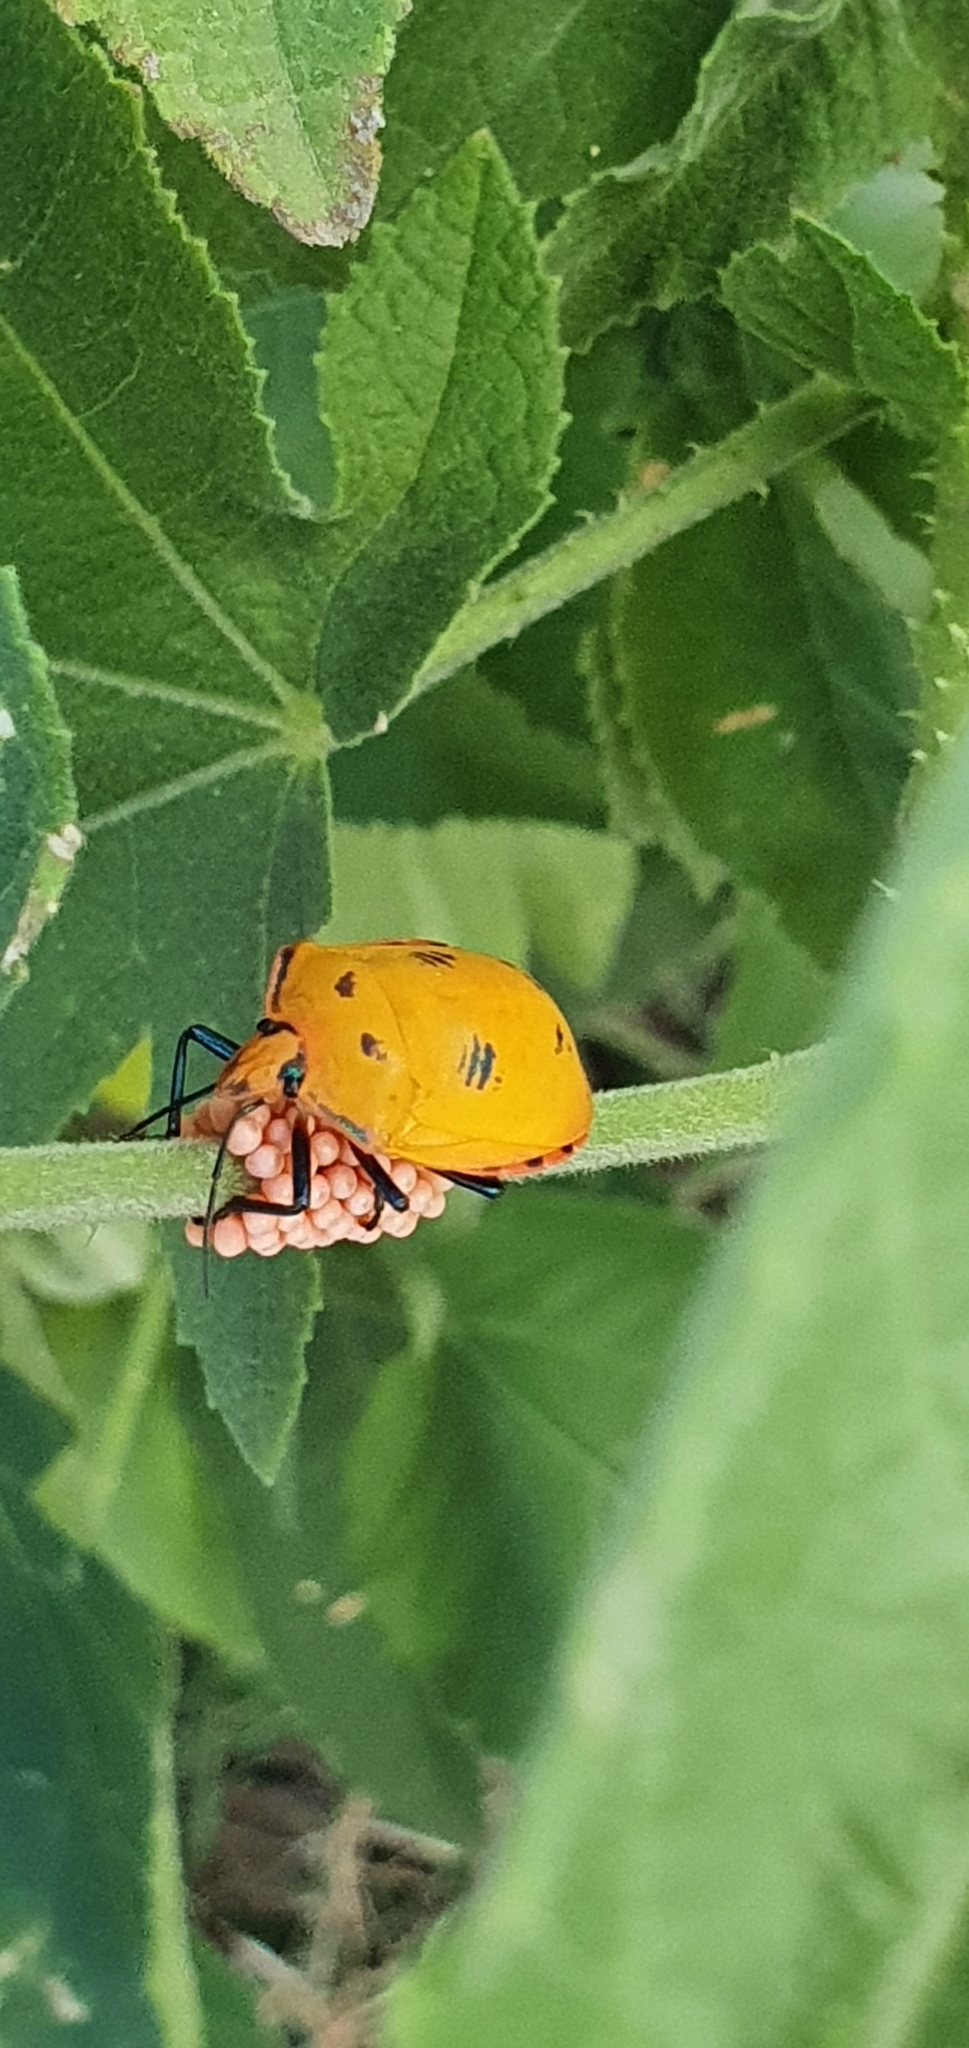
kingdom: Animalia
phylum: Arthropoda
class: Insecta
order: Hemiptera
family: Scutelleridae
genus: Tectocoris
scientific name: Tectocoris diophthalmus
